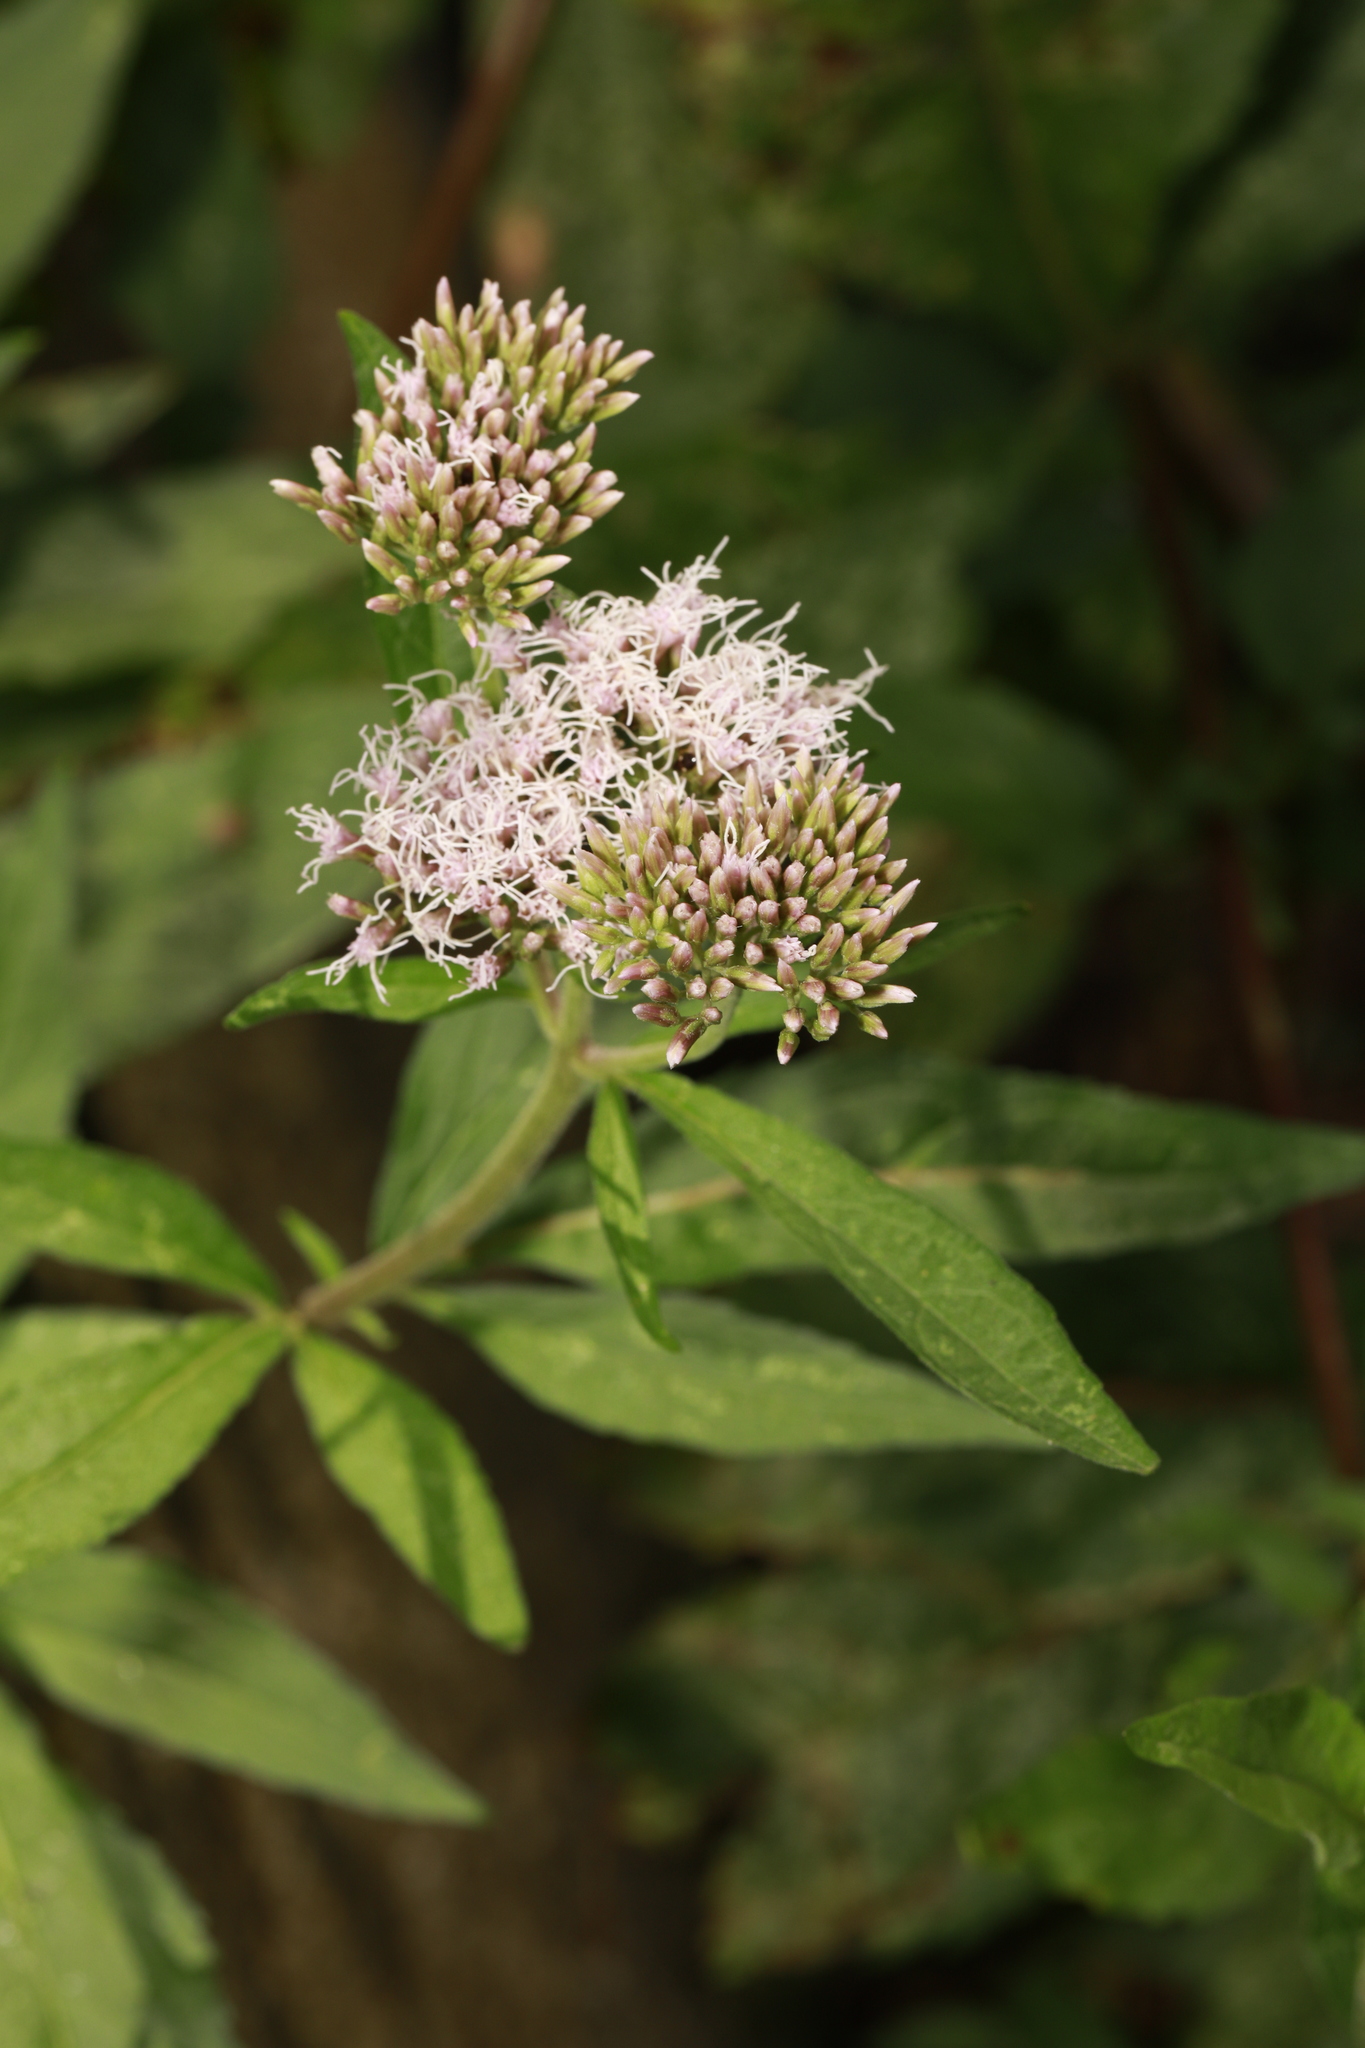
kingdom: Plantae
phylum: Tracheophyta
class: Magnoliopsida
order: Asterales
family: Asteraceae
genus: Eupatorium
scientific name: Eupatorium cannabinum
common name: Hemp-agrimony
